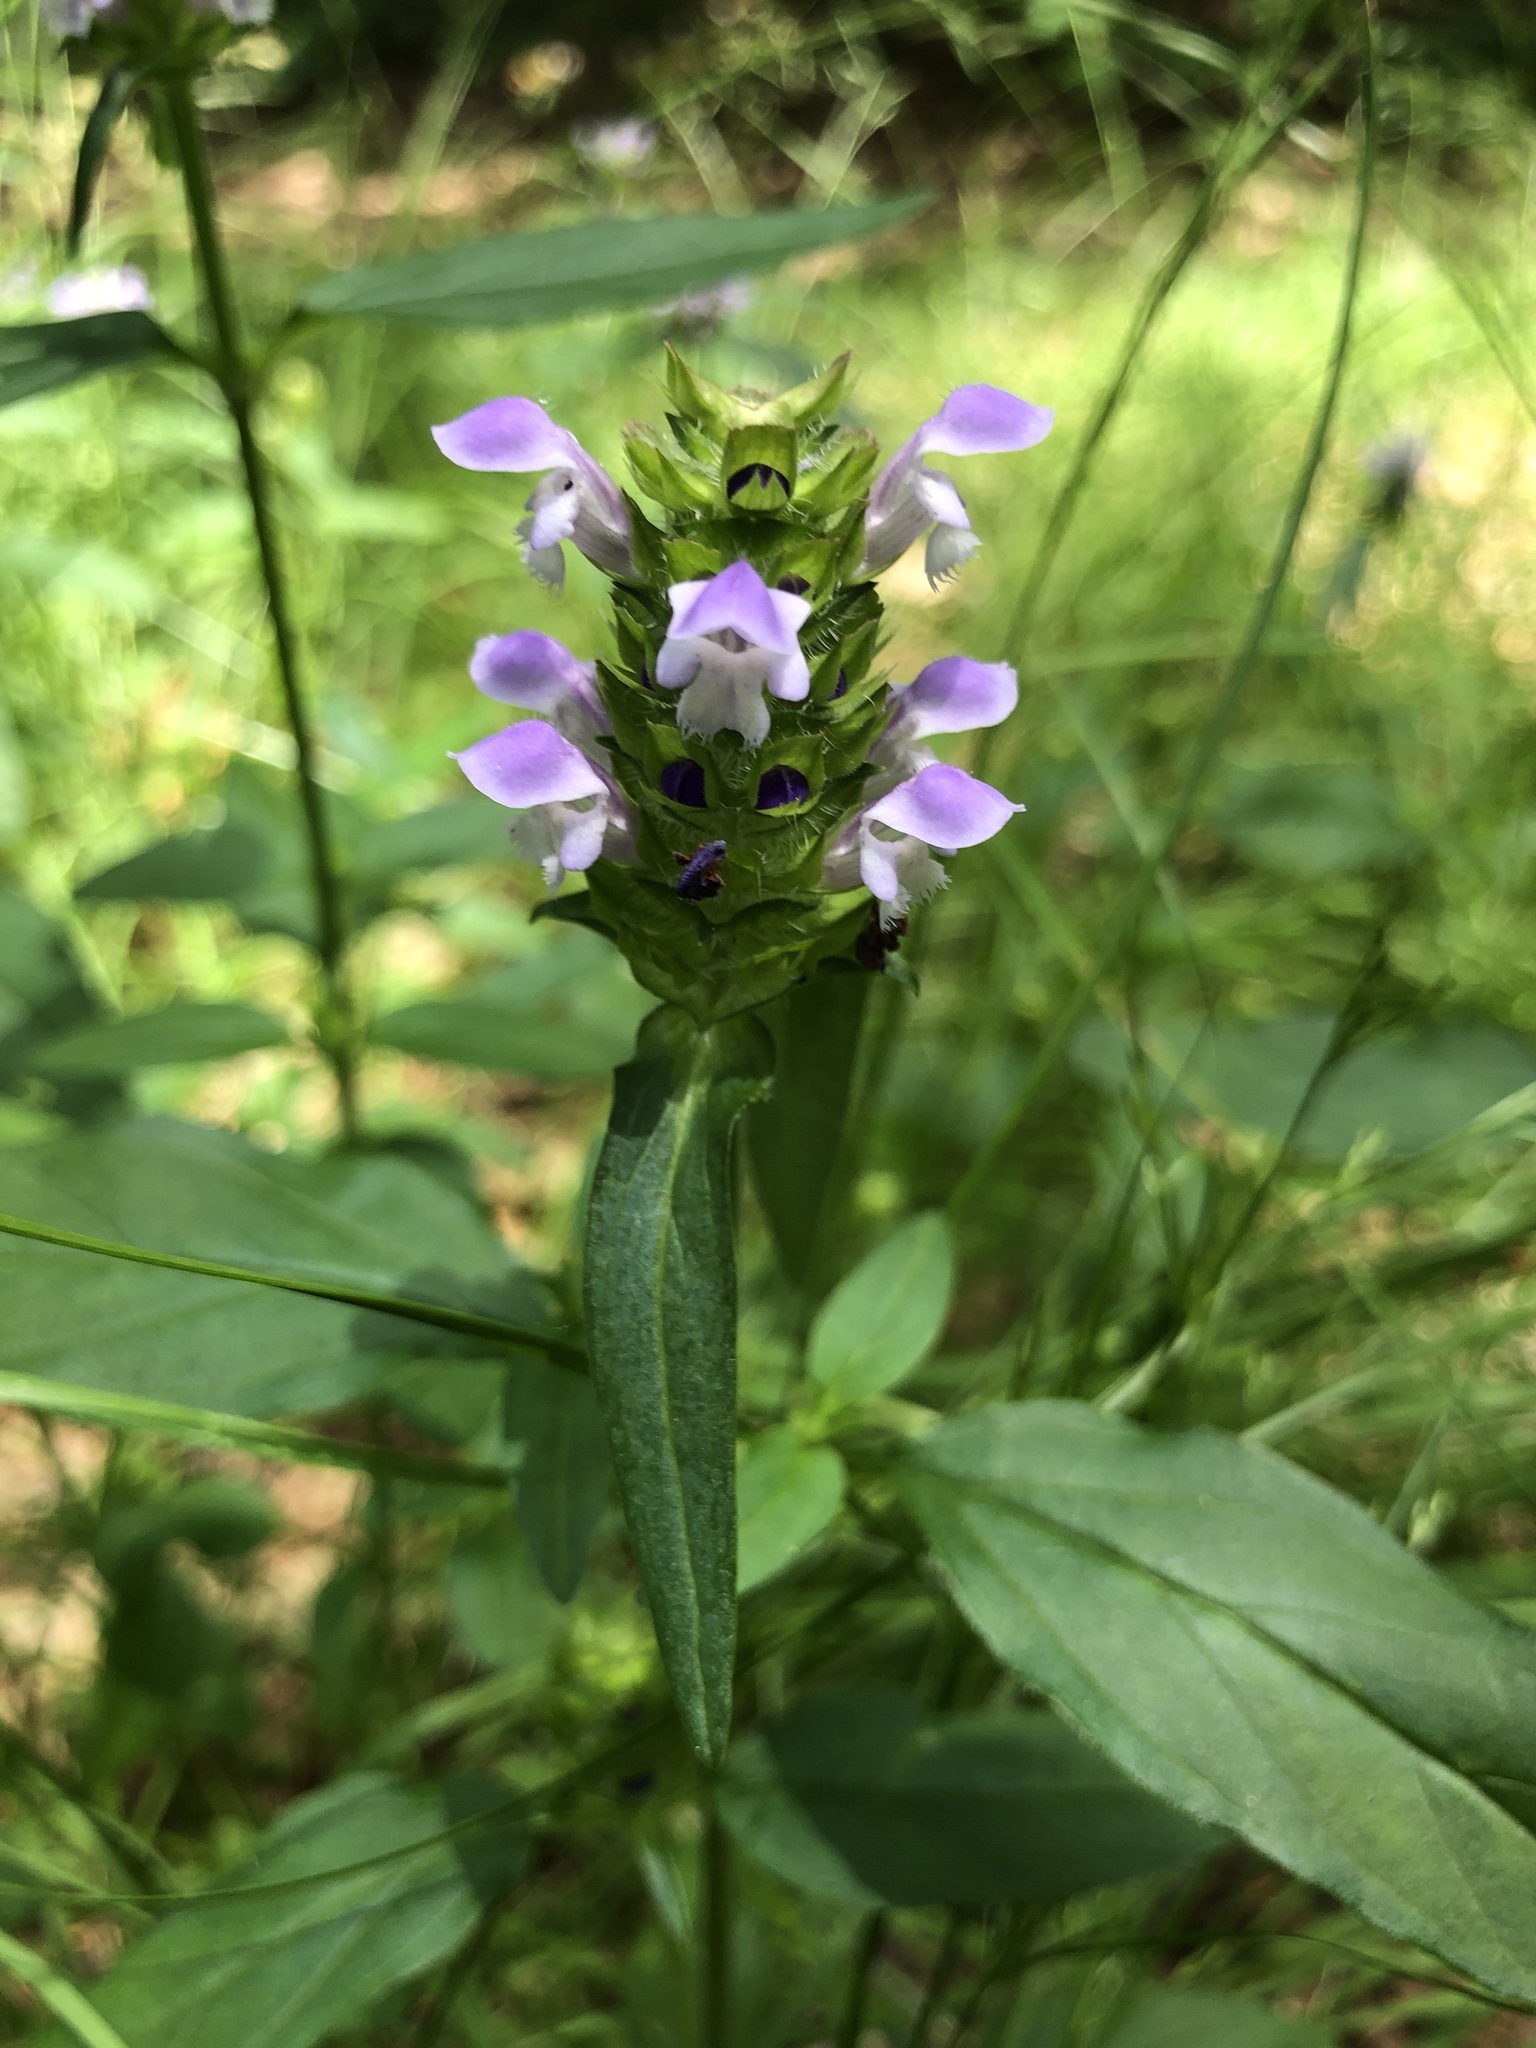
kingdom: Plantae
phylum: Tracheophyta
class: Magnoliopsida
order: Lamiales
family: Lamiaceae
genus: Prunella
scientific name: Prunella vulgaris
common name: Heal-all
